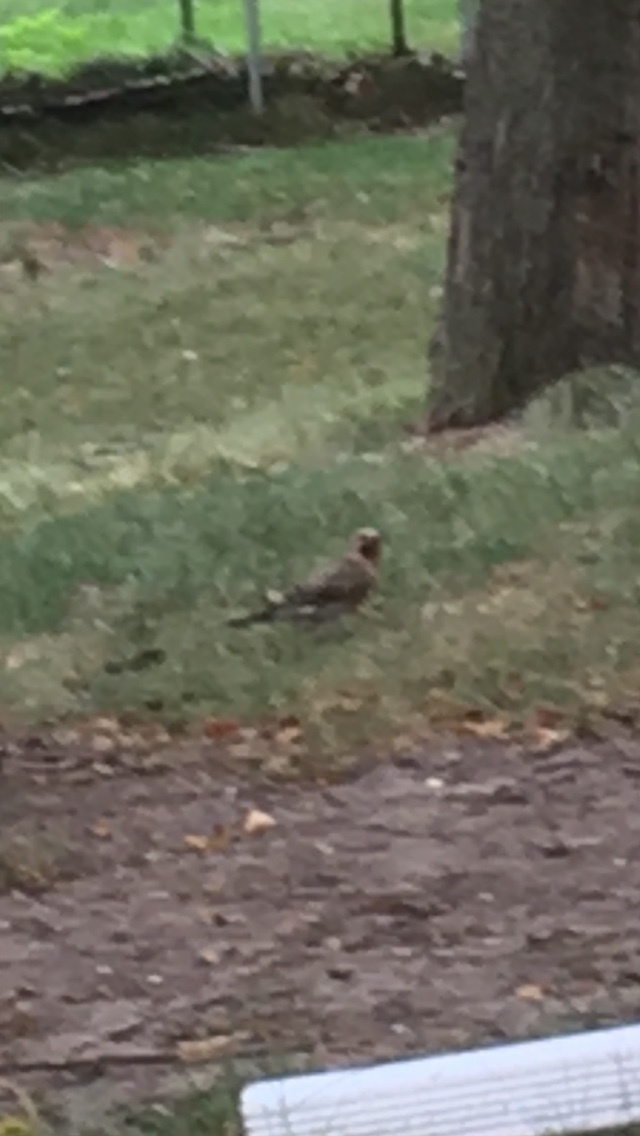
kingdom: Animalia
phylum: Chordata
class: Aves
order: Piciformes
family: Picidae
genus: Colaptes
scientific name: Colaptes auratus
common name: Northern flicker
